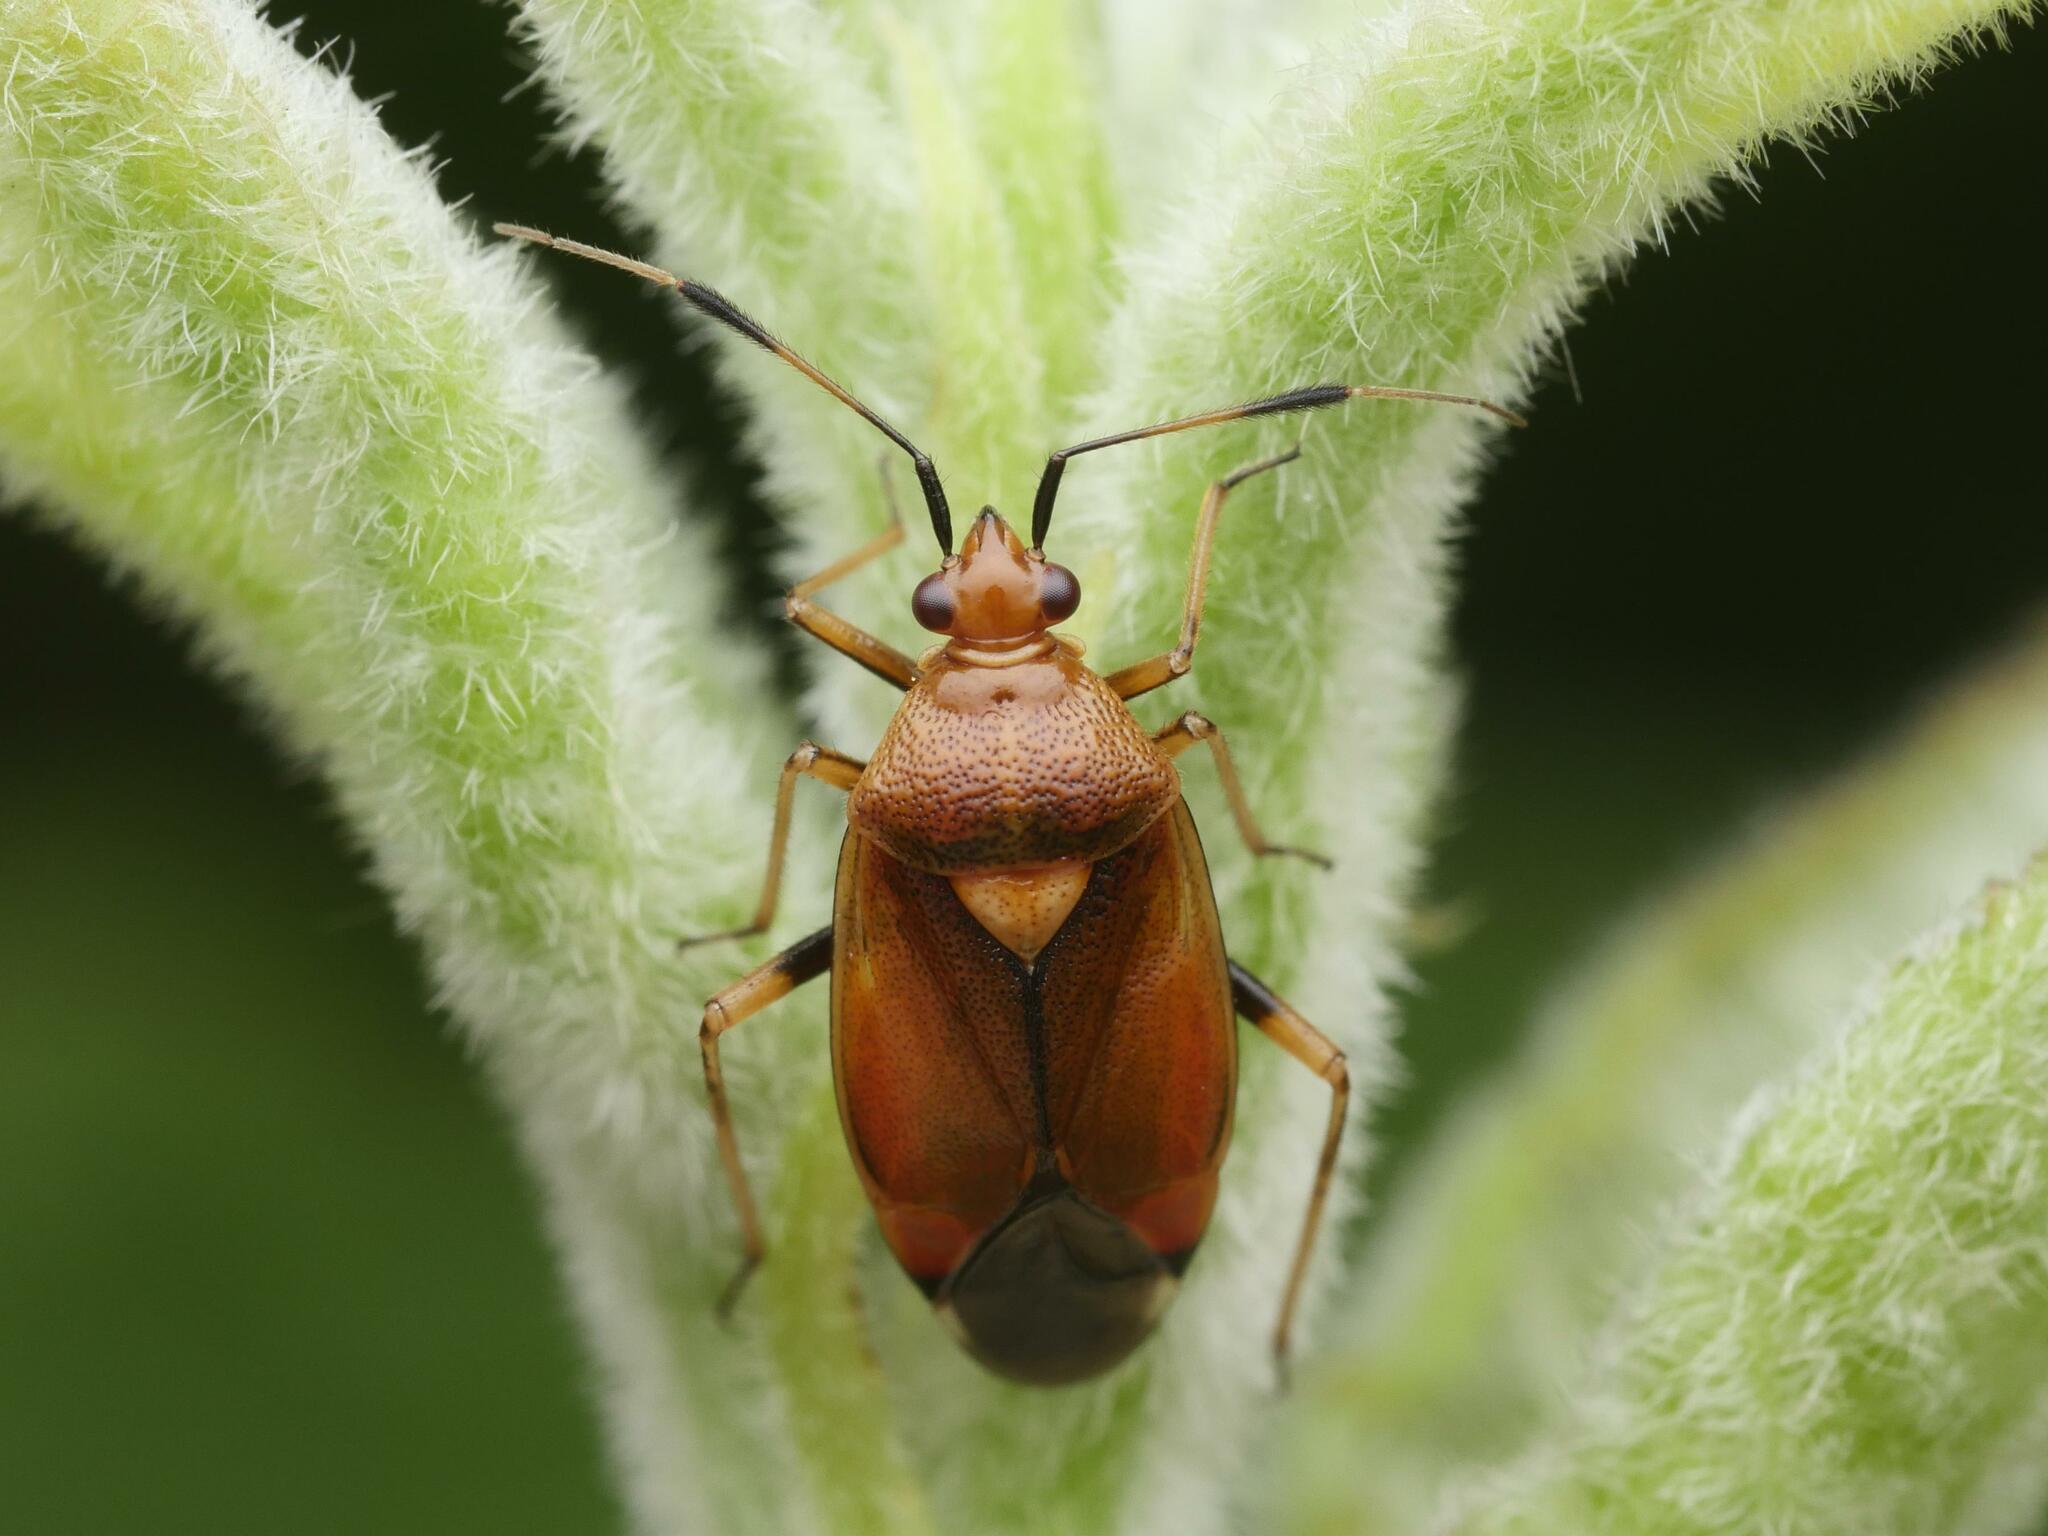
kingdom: Animalia
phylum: Arthropoda
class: Insecta
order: Hemiptera
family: Miridae
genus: Deraeocoris
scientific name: Deraeocoris ruber
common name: Plant bug
